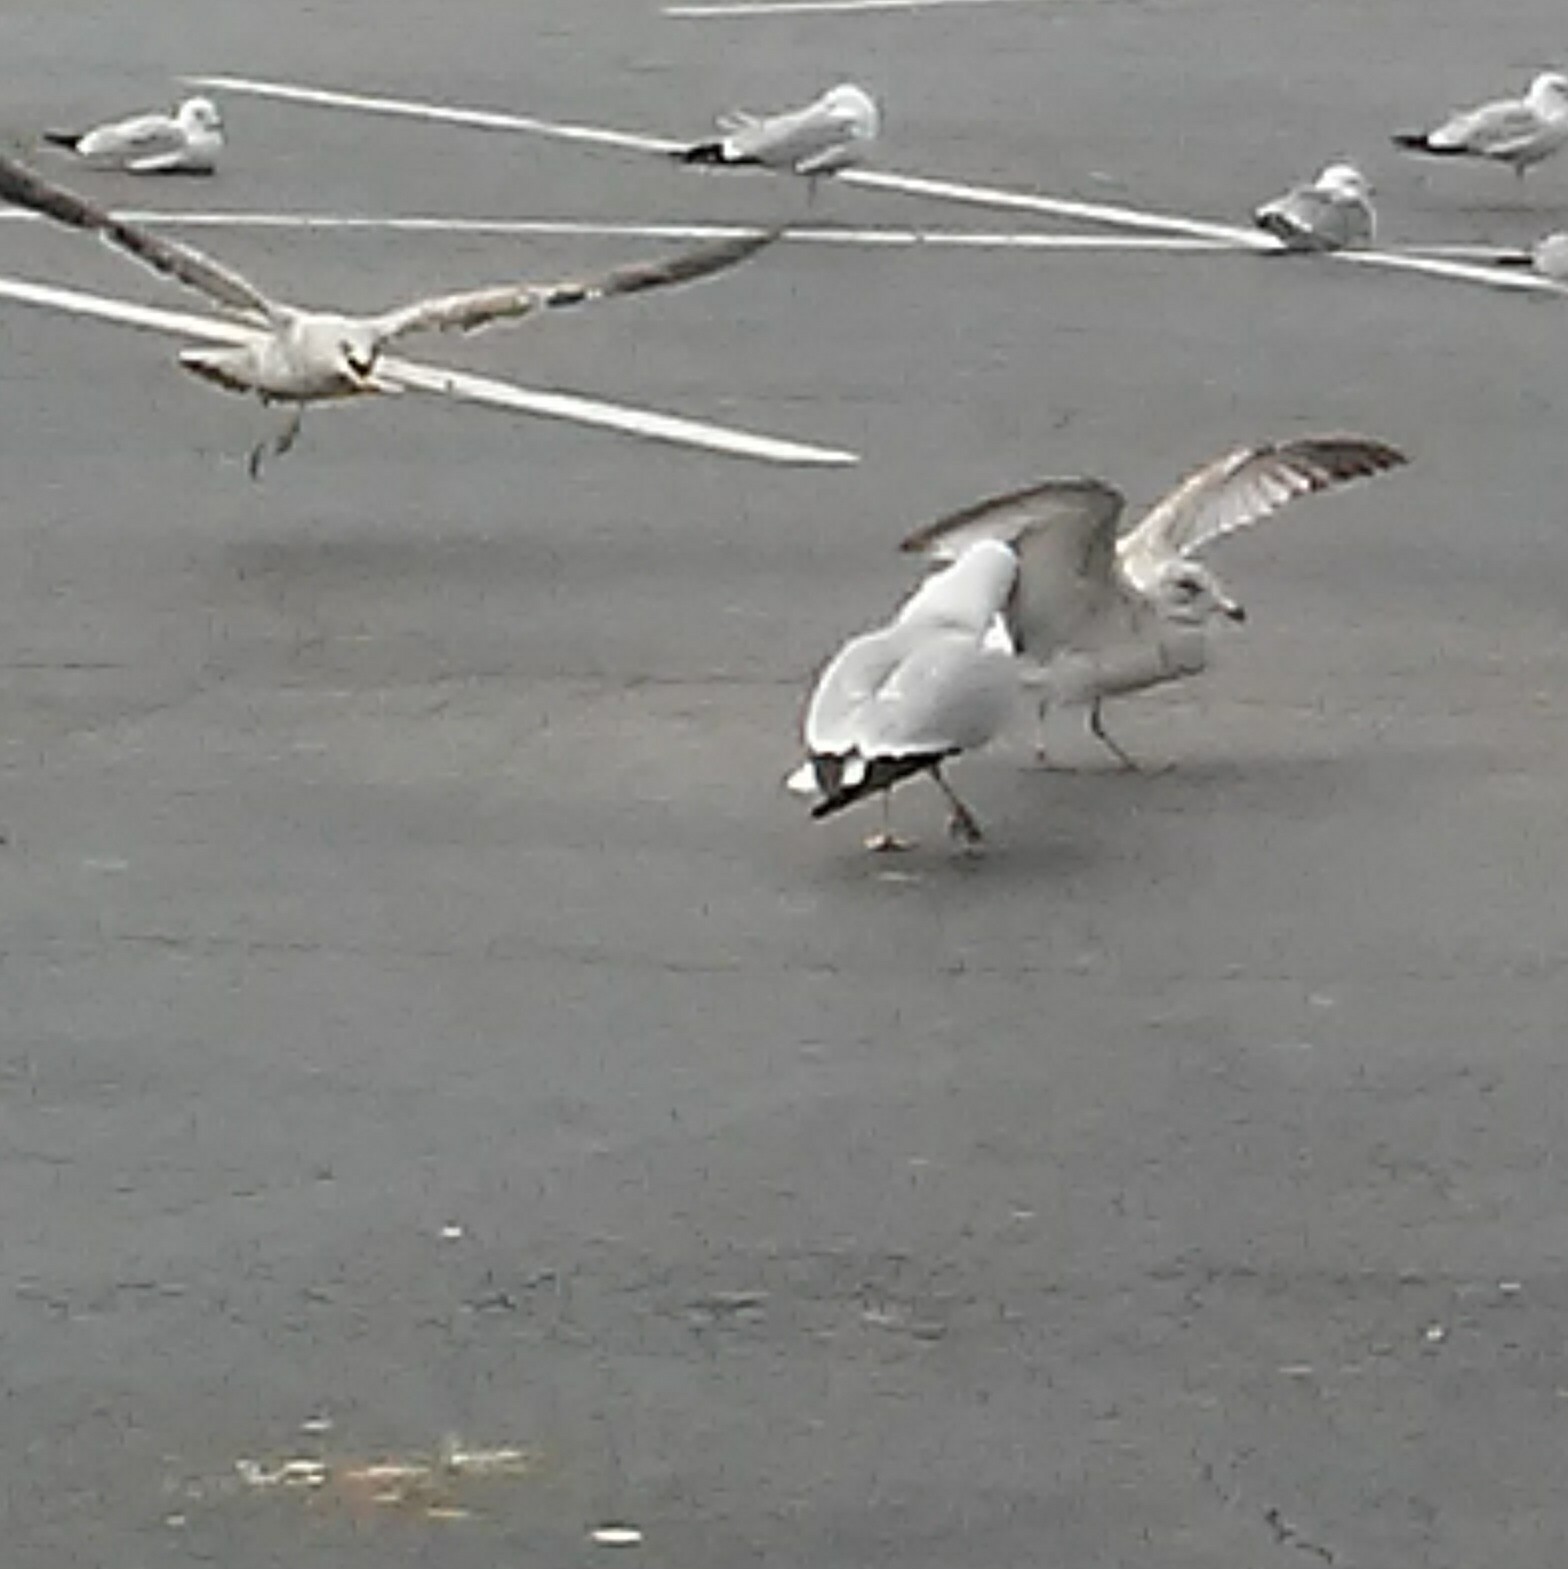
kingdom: Animalia
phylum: Chordata
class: Aves
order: Charadriiformes
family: Laridae
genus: Larus
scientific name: Larus delawarensis
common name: Ring-billed gull
